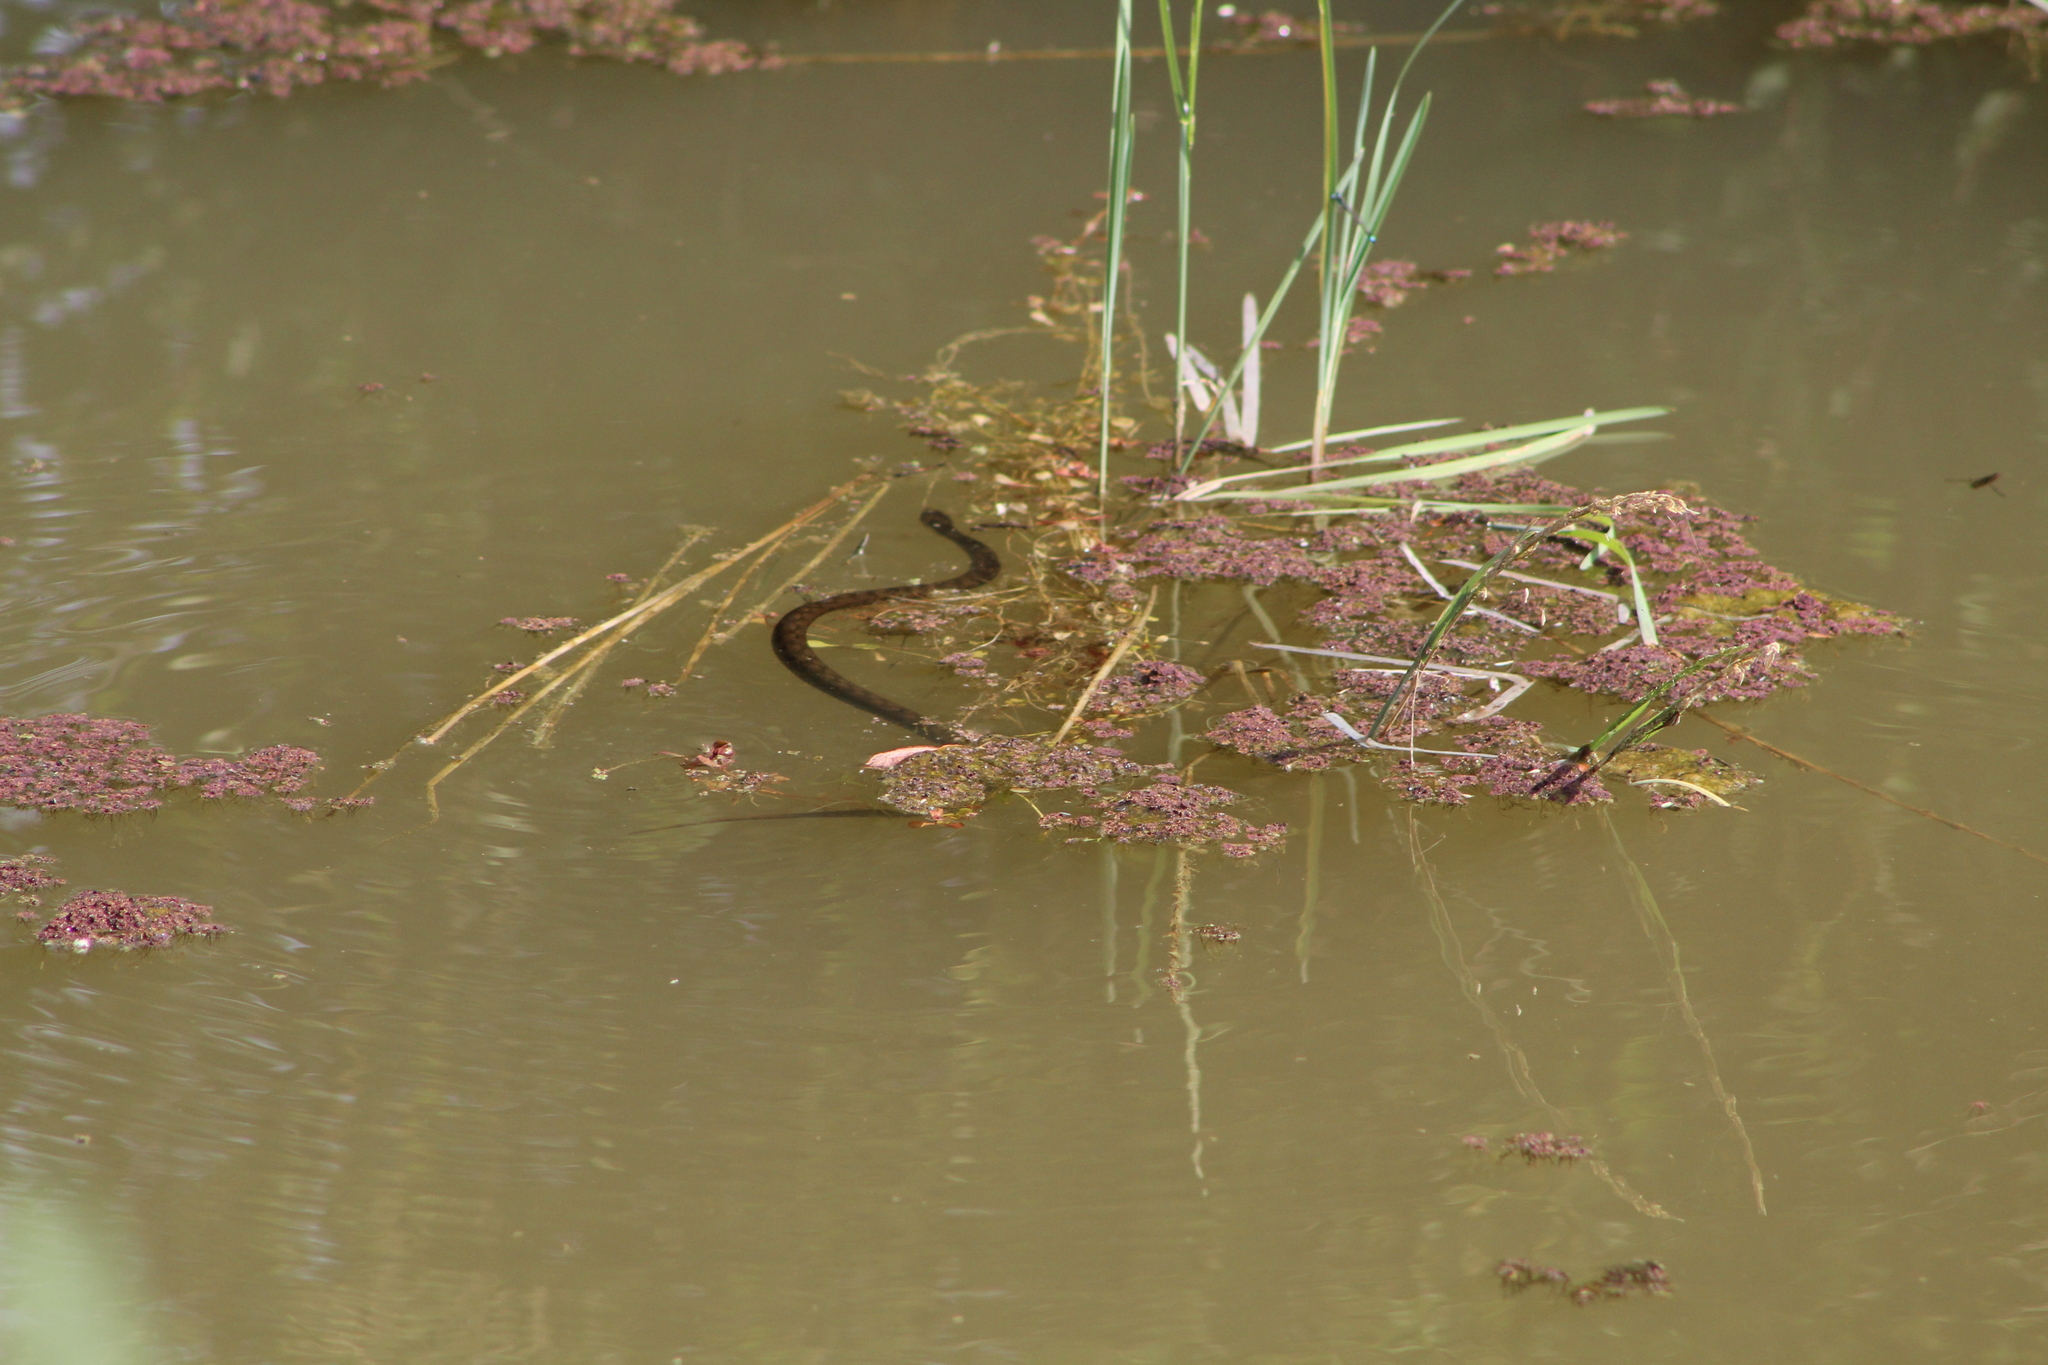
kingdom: Animalia
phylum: Chordata
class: Squamata
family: Colubridae
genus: Natrix
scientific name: Natrix maura
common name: Viperine water snake
